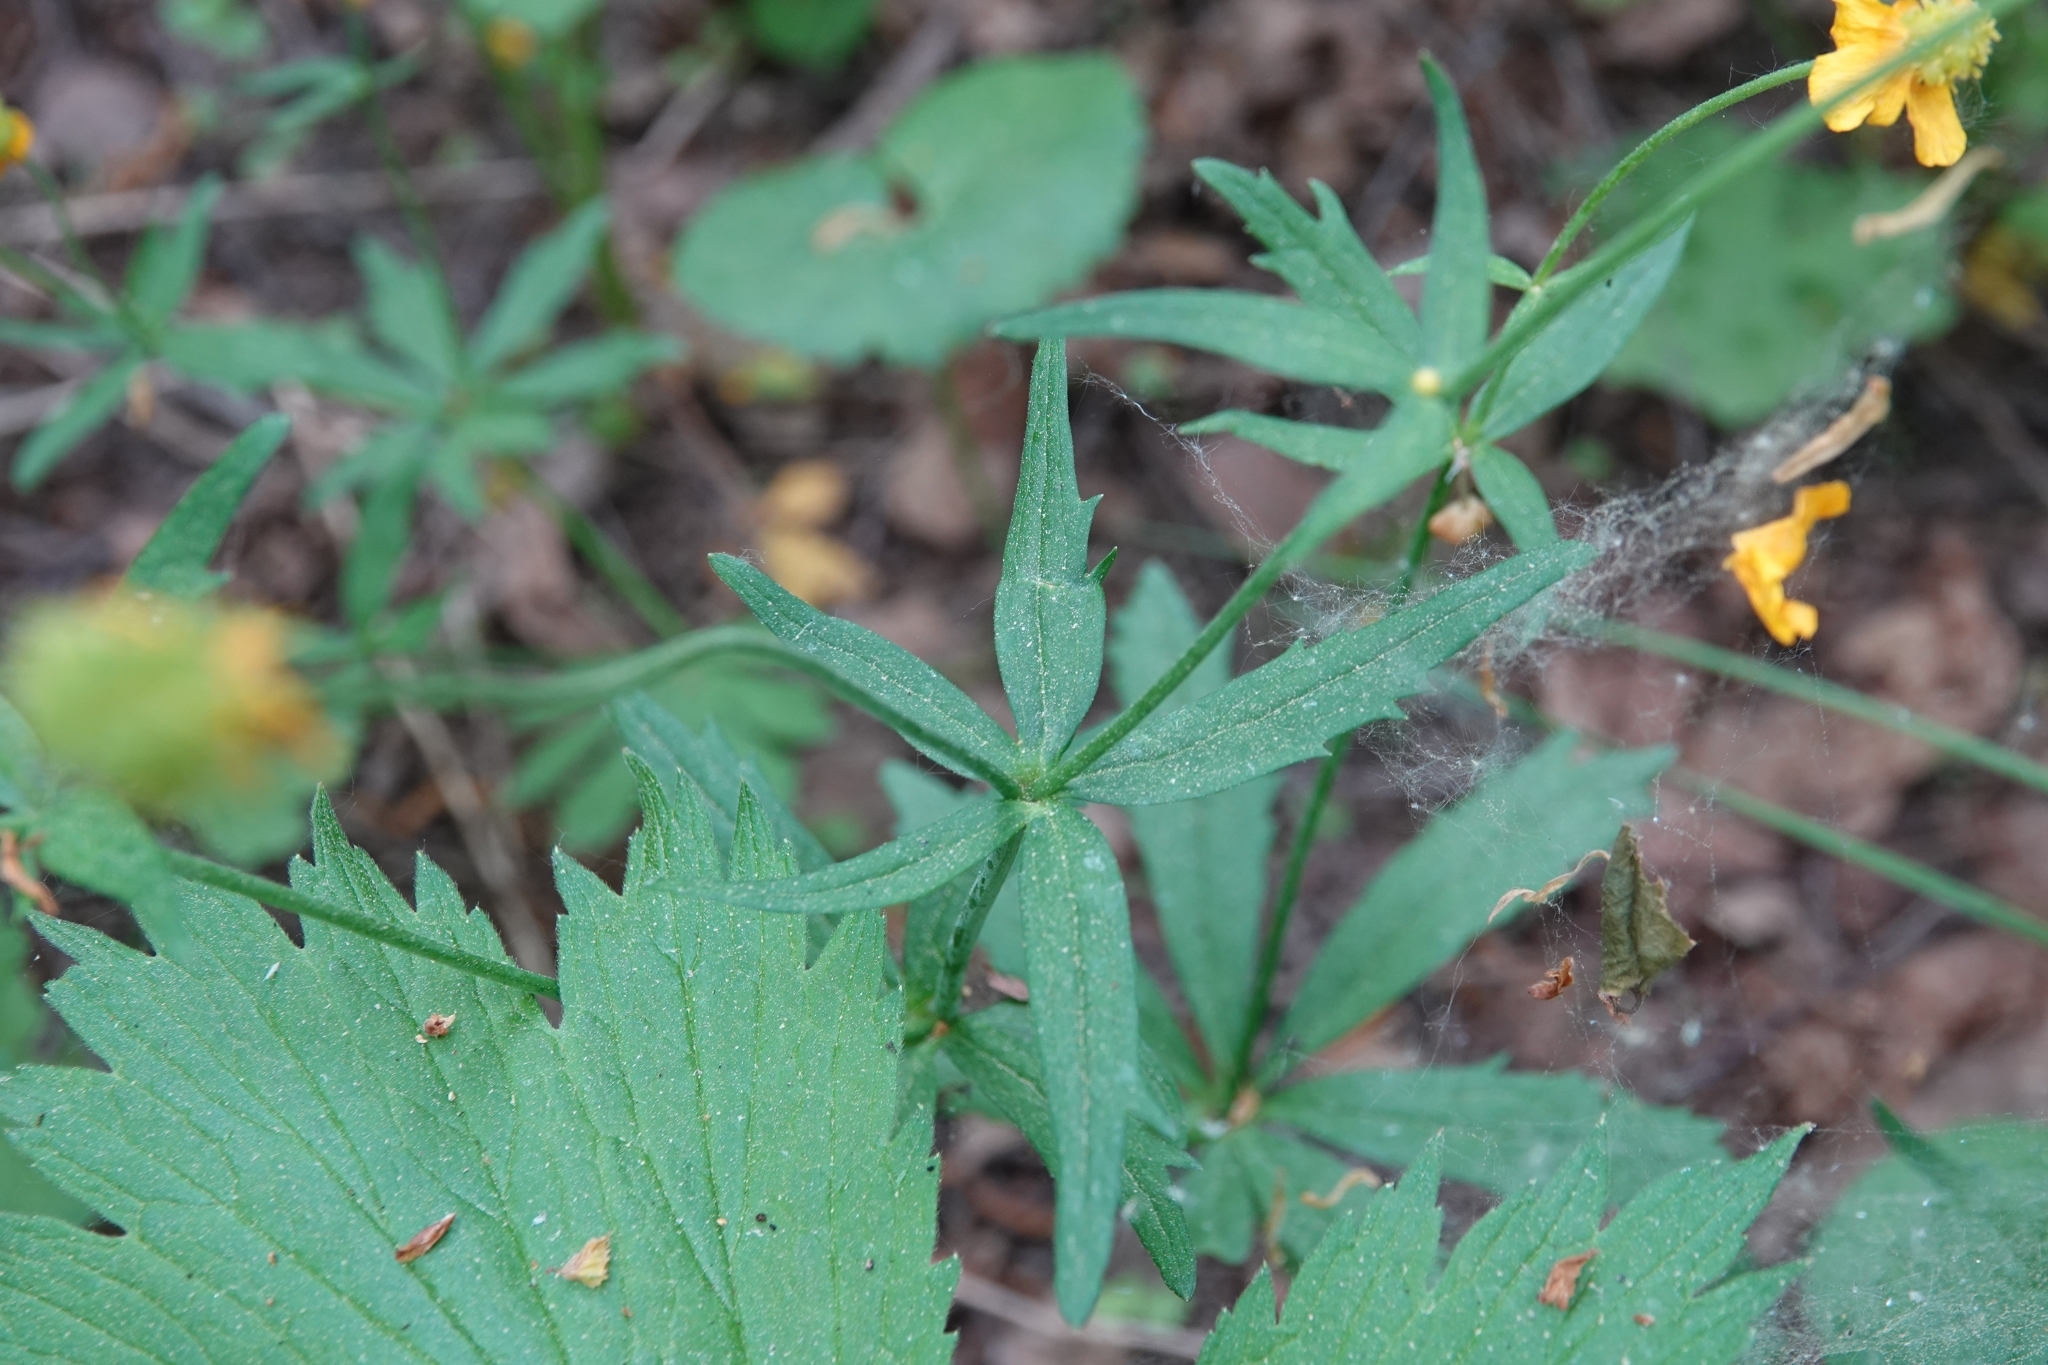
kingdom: Plantae
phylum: Tracheophyta
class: Magnoliopsida
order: Ranunculales
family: Ranunculaceae
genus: Ranunculus
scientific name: Ranunculus cassubicus
